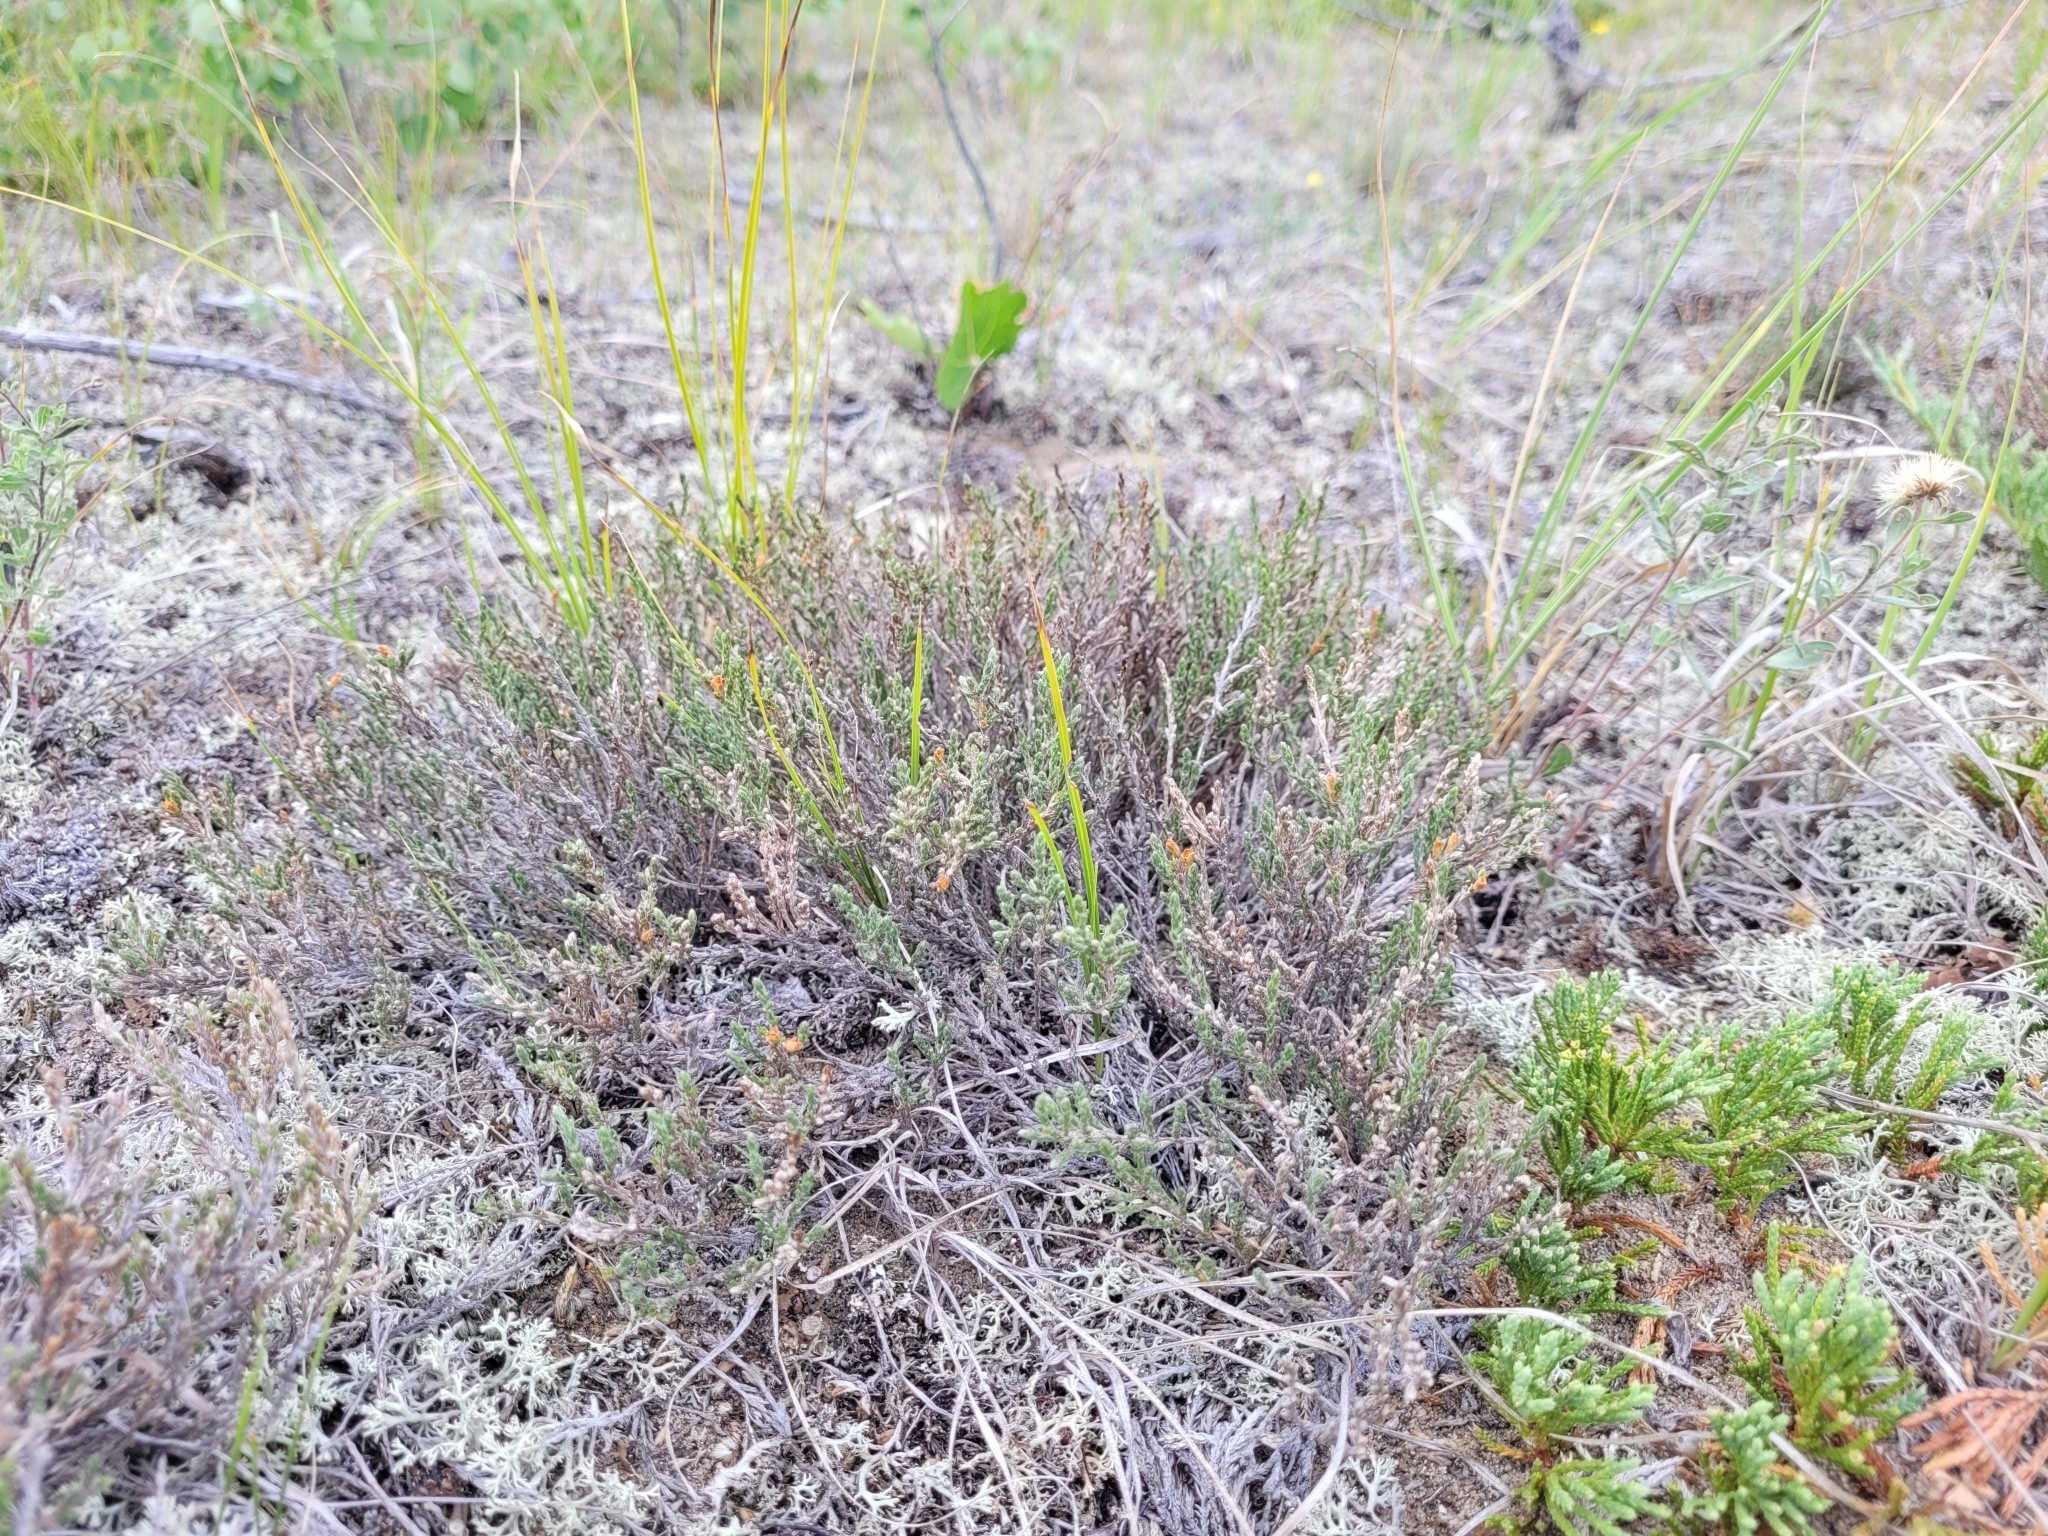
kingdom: Plantae
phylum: Tracheophyta
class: Magnoliopsida
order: Malvales
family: Cistaceae
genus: Hudsonia
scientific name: Hudsonia tomentosa
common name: Beach-heath
